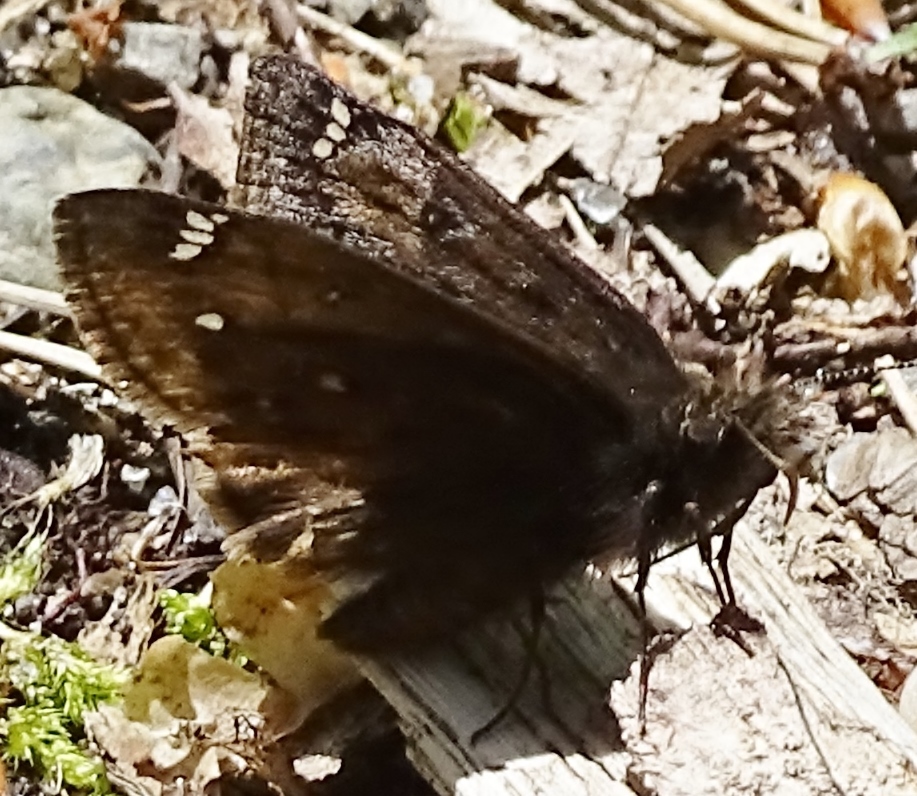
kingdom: Animalia
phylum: Arthropoda
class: Insecta
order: Lepidoptera
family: Hesperiidae
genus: Erynnis
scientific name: Erynnis juvenalis
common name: Juvenal's duskywing
